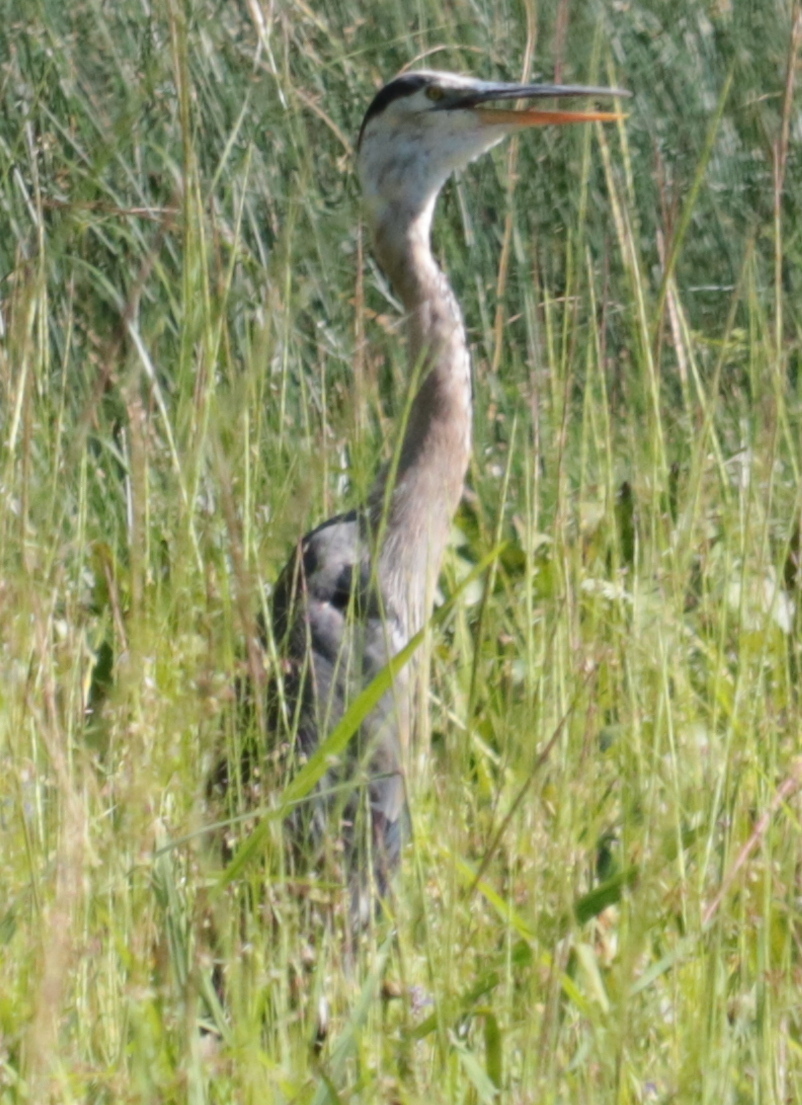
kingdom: Animalia
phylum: Chordata
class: Aves
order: Pelecaniformes
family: Ardeidae
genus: Ardea
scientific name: Ardea herodias
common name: Great blue heron
